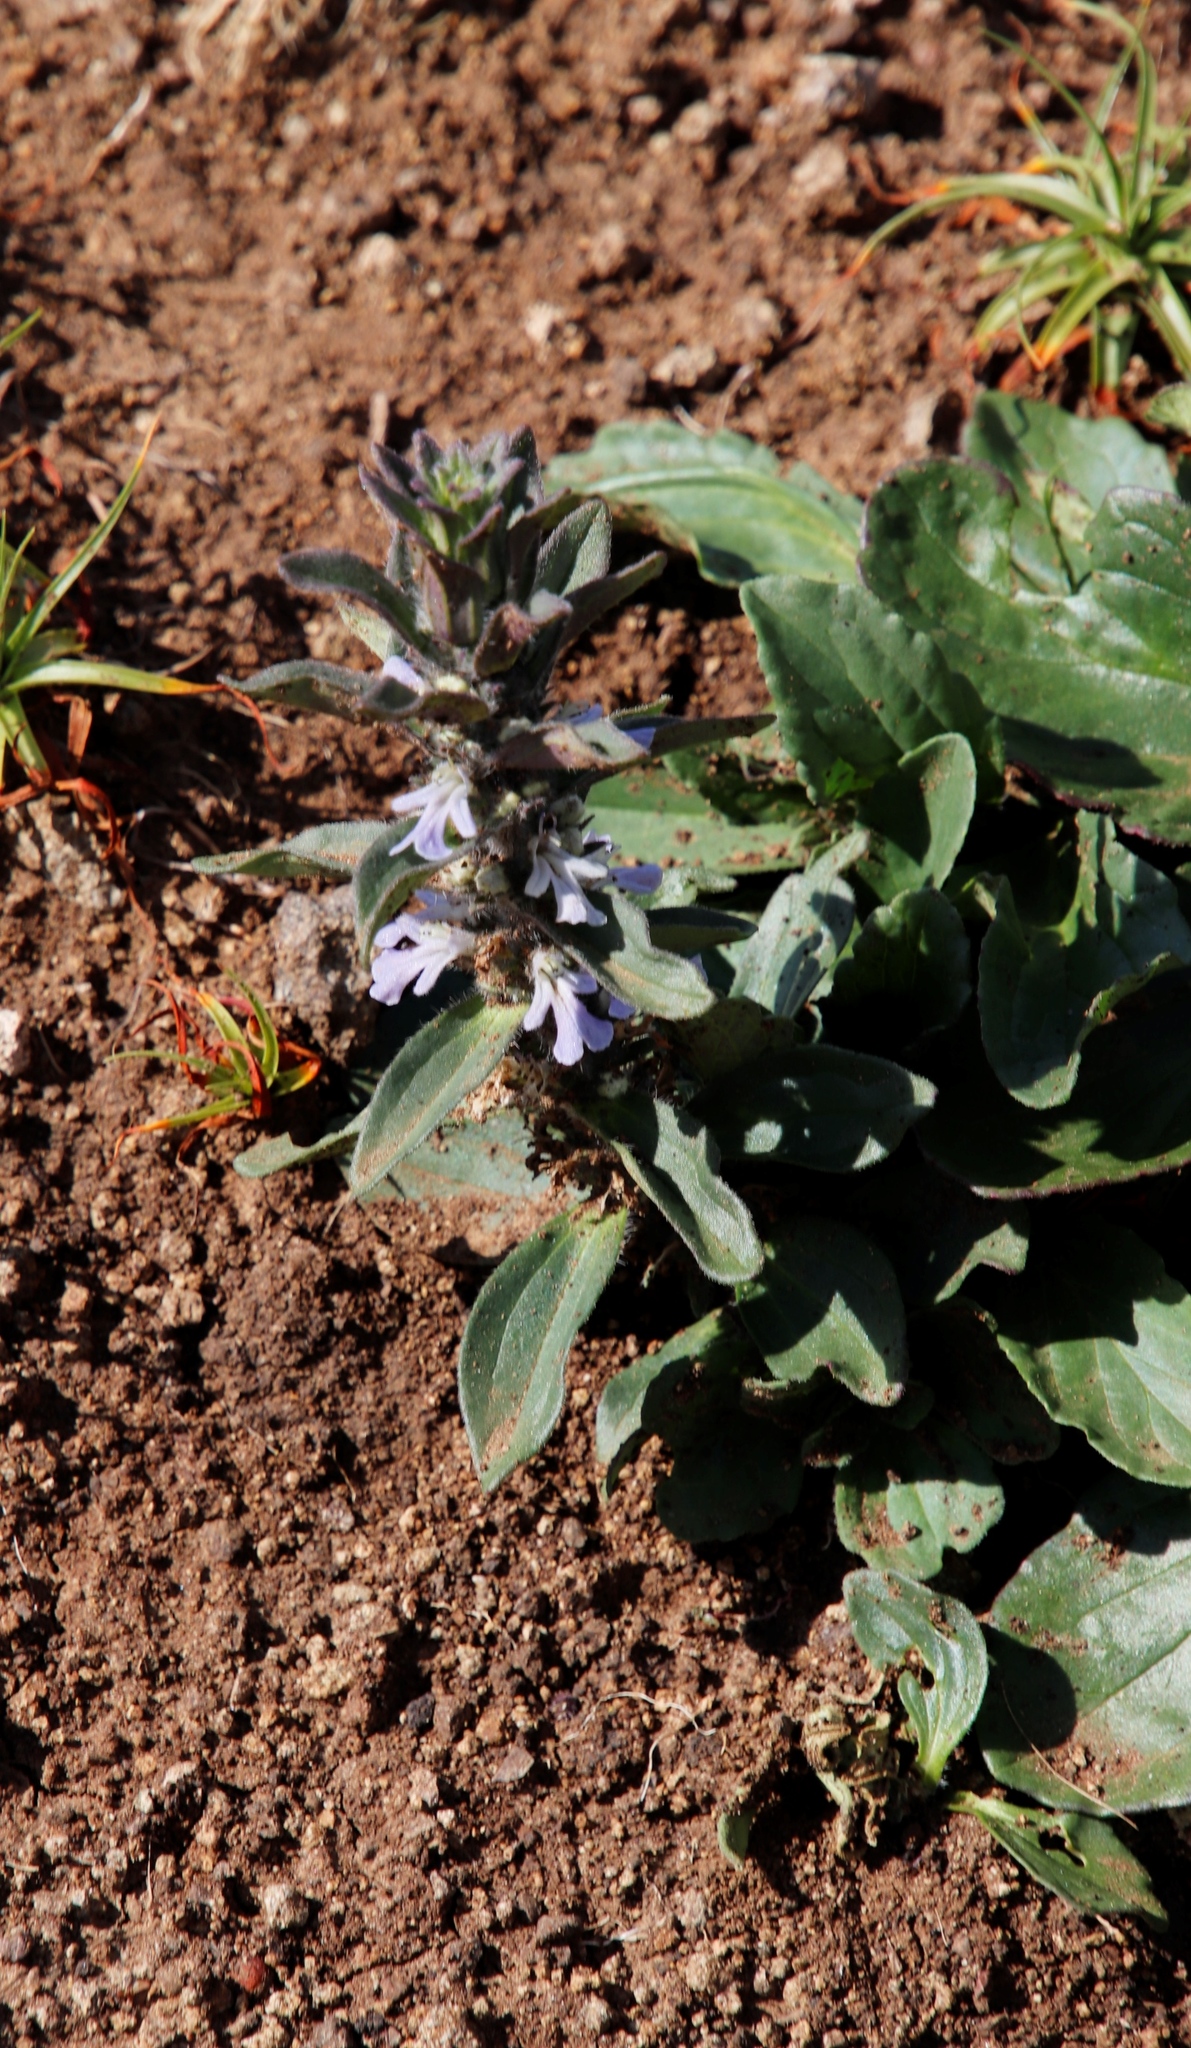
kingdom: Plantae
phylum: Tracheophyta
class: Magnoliopsida
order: Lamiales
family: Lamiaceae
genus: Ajuga
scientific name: Ajuga ophrydis
